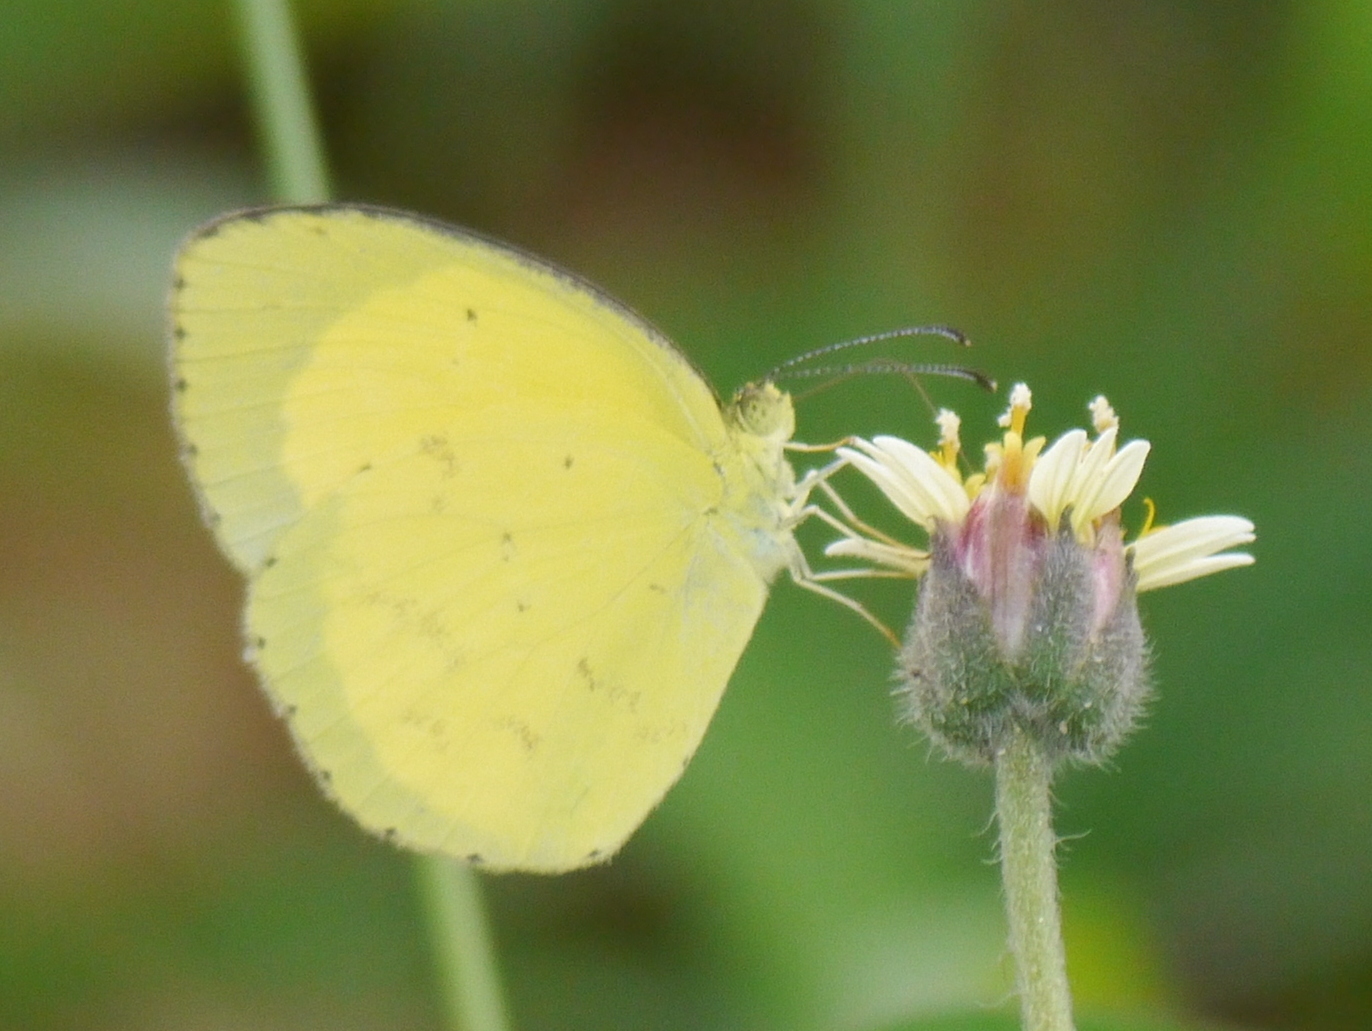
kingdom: Animalia
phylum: Arthropoda
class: Insecta
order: Lepidoptera
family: Pieridae
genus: Eurema
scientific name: Eurema regularis
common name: Regular grass yellow
